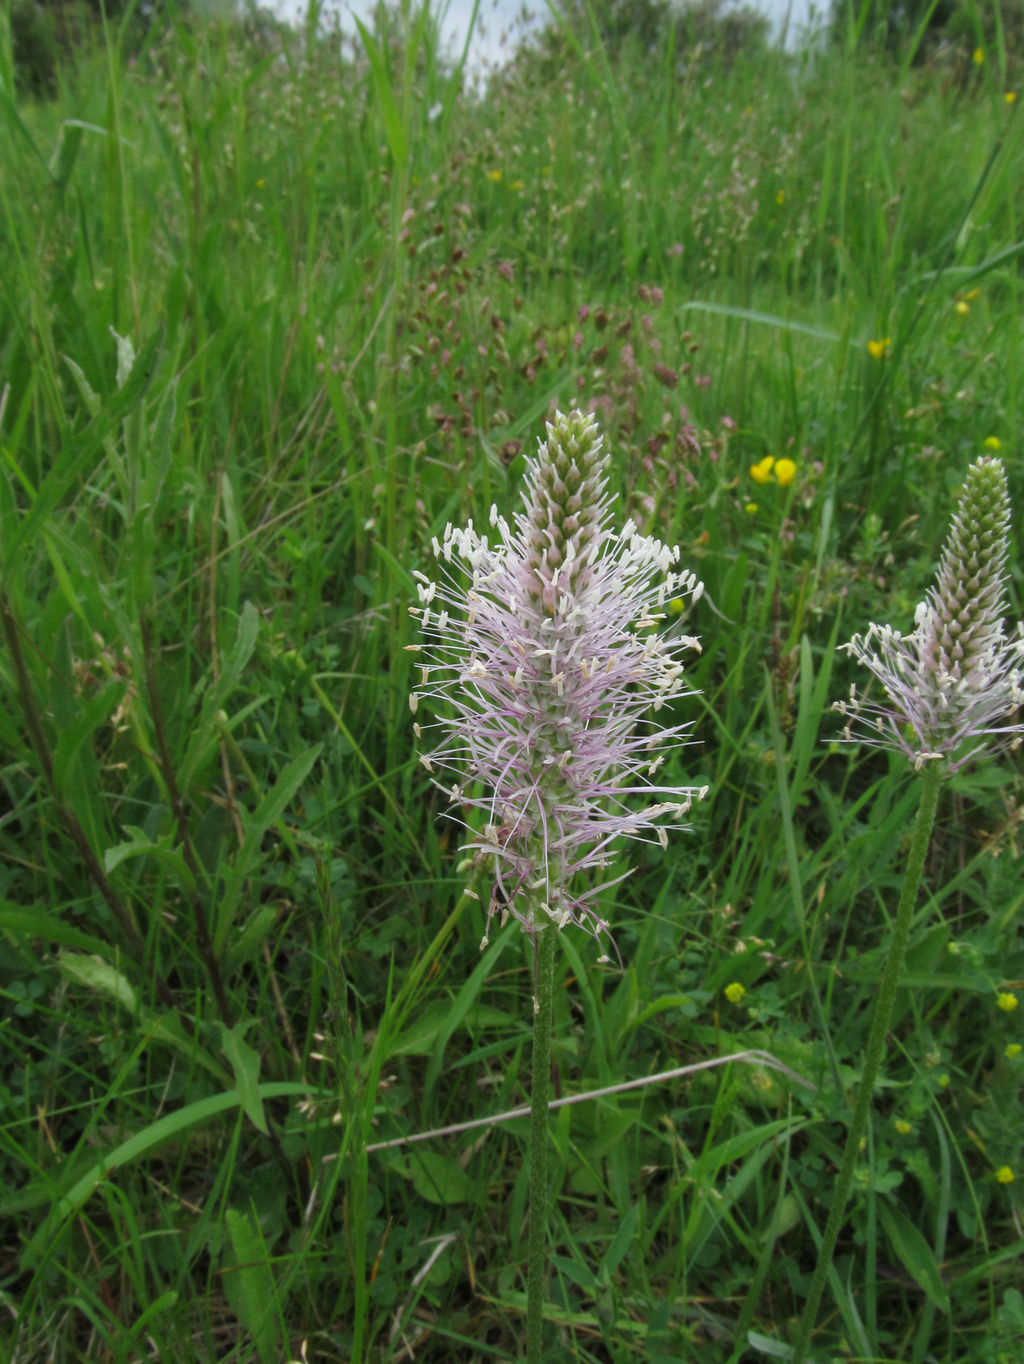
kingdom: Plantae
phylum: Tracheophyta
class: Magnoliopsida
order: Lamiales
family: Plantaginaceae
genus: Plantago
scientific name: Plantago media
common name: Hoary plantain
